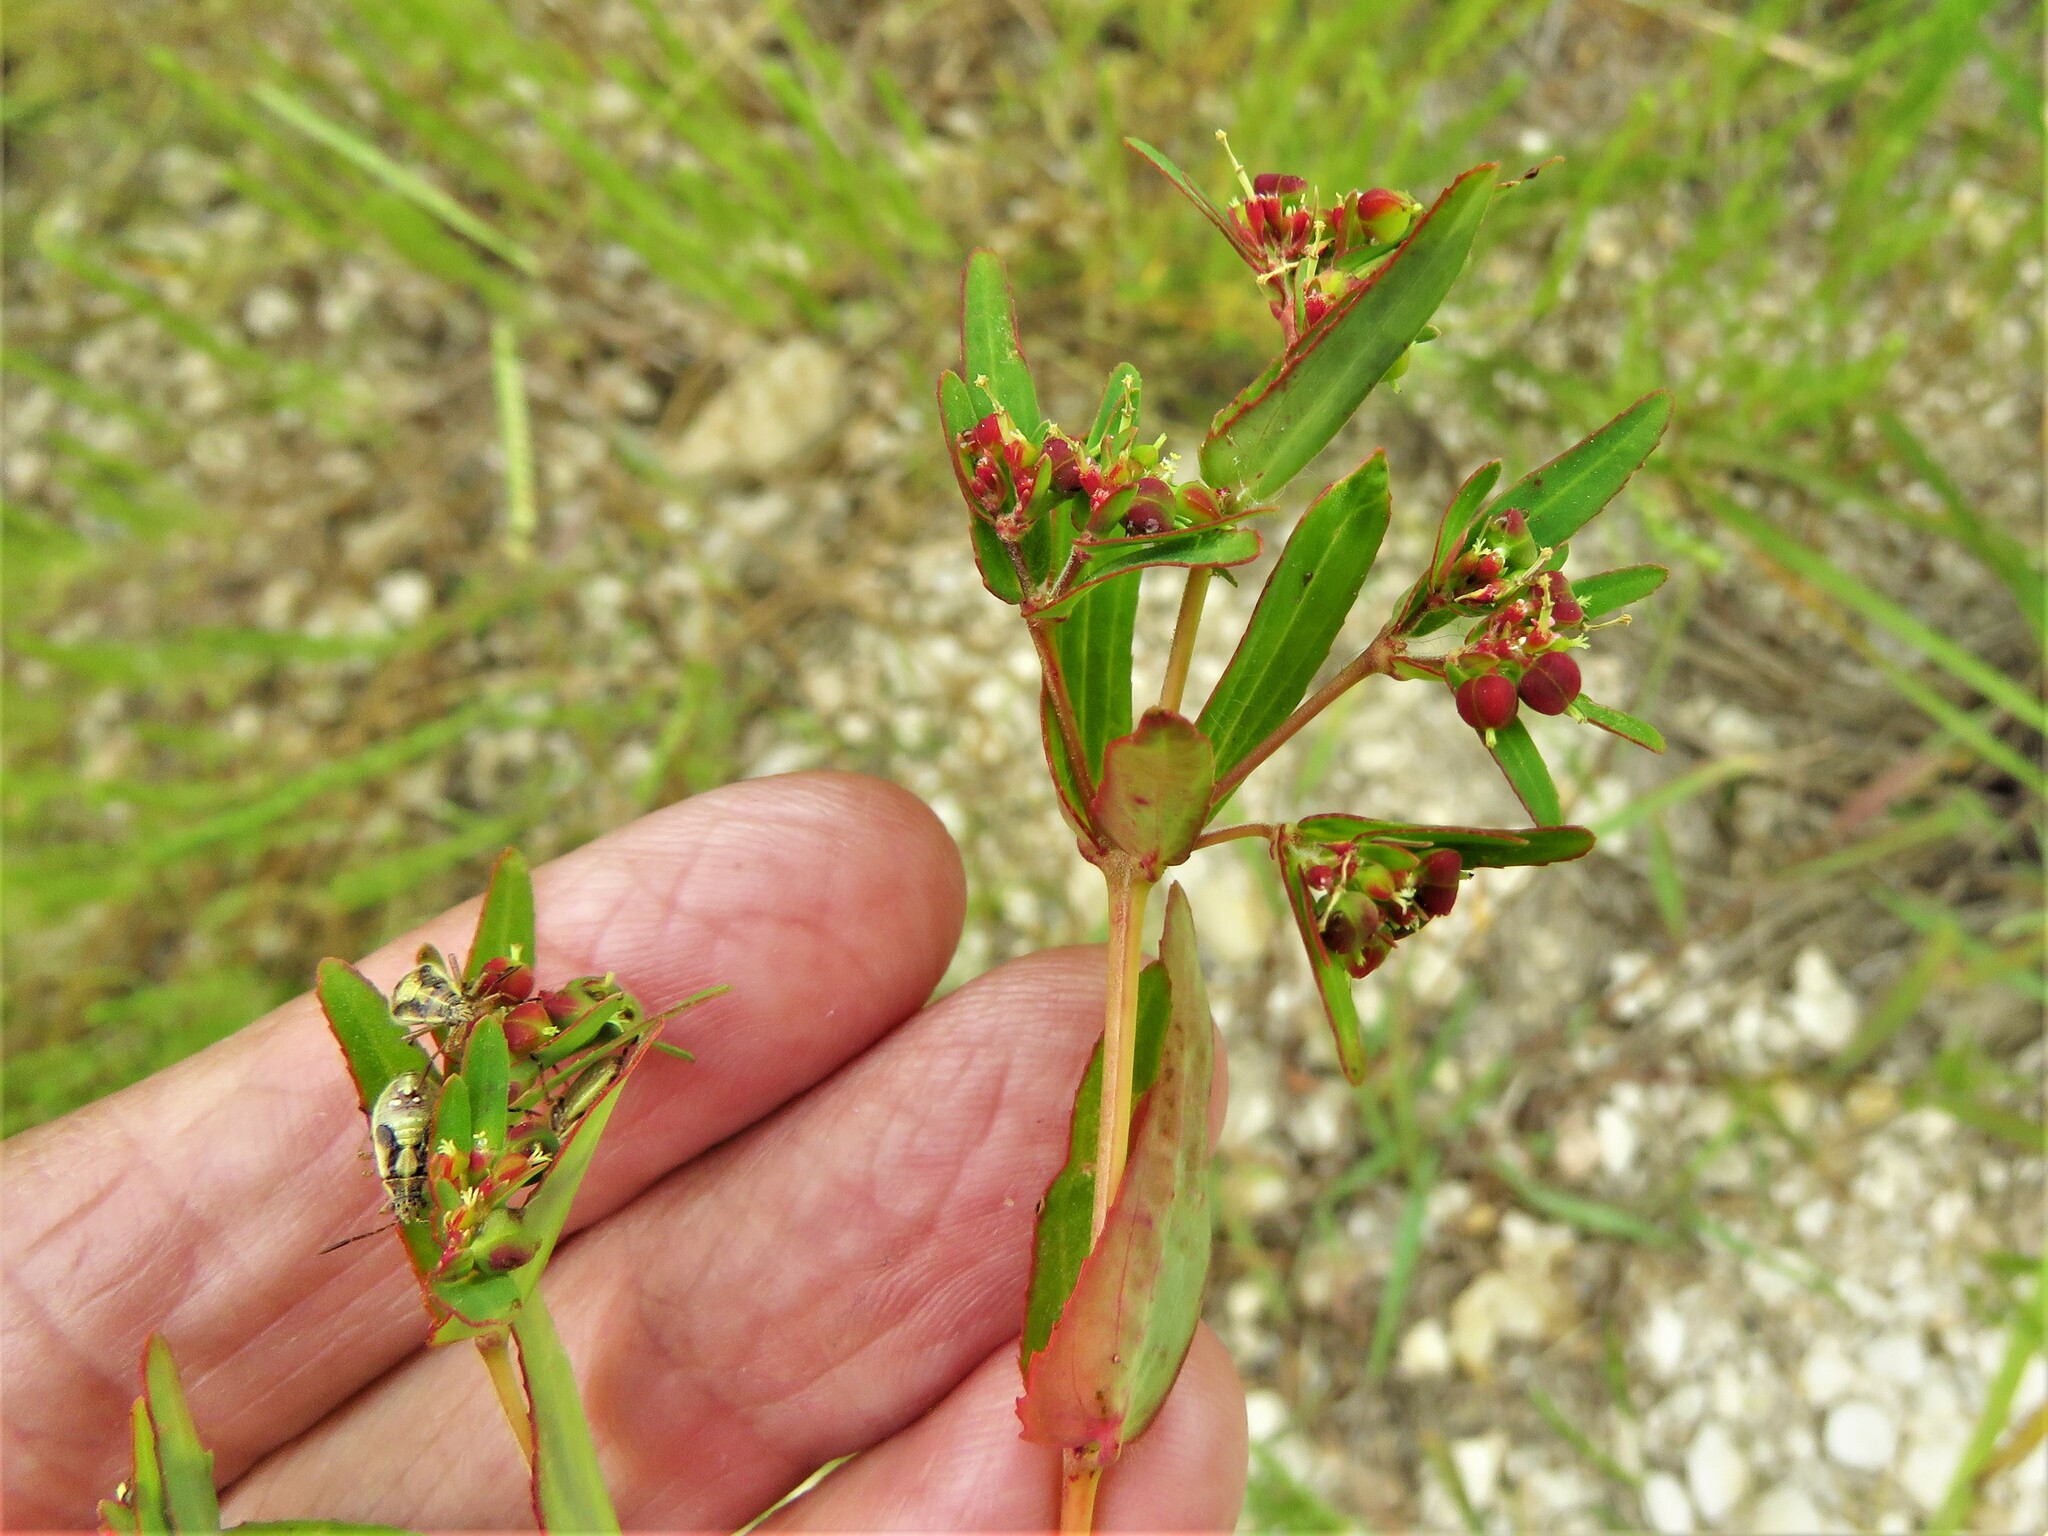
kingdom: Plantae
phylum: Tracheophyta
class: Magnoliopsida
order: Malpighiales
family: Euphorbiaceae
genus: Euphorbia
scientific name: Euphorbia nutans
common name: Eyebane
